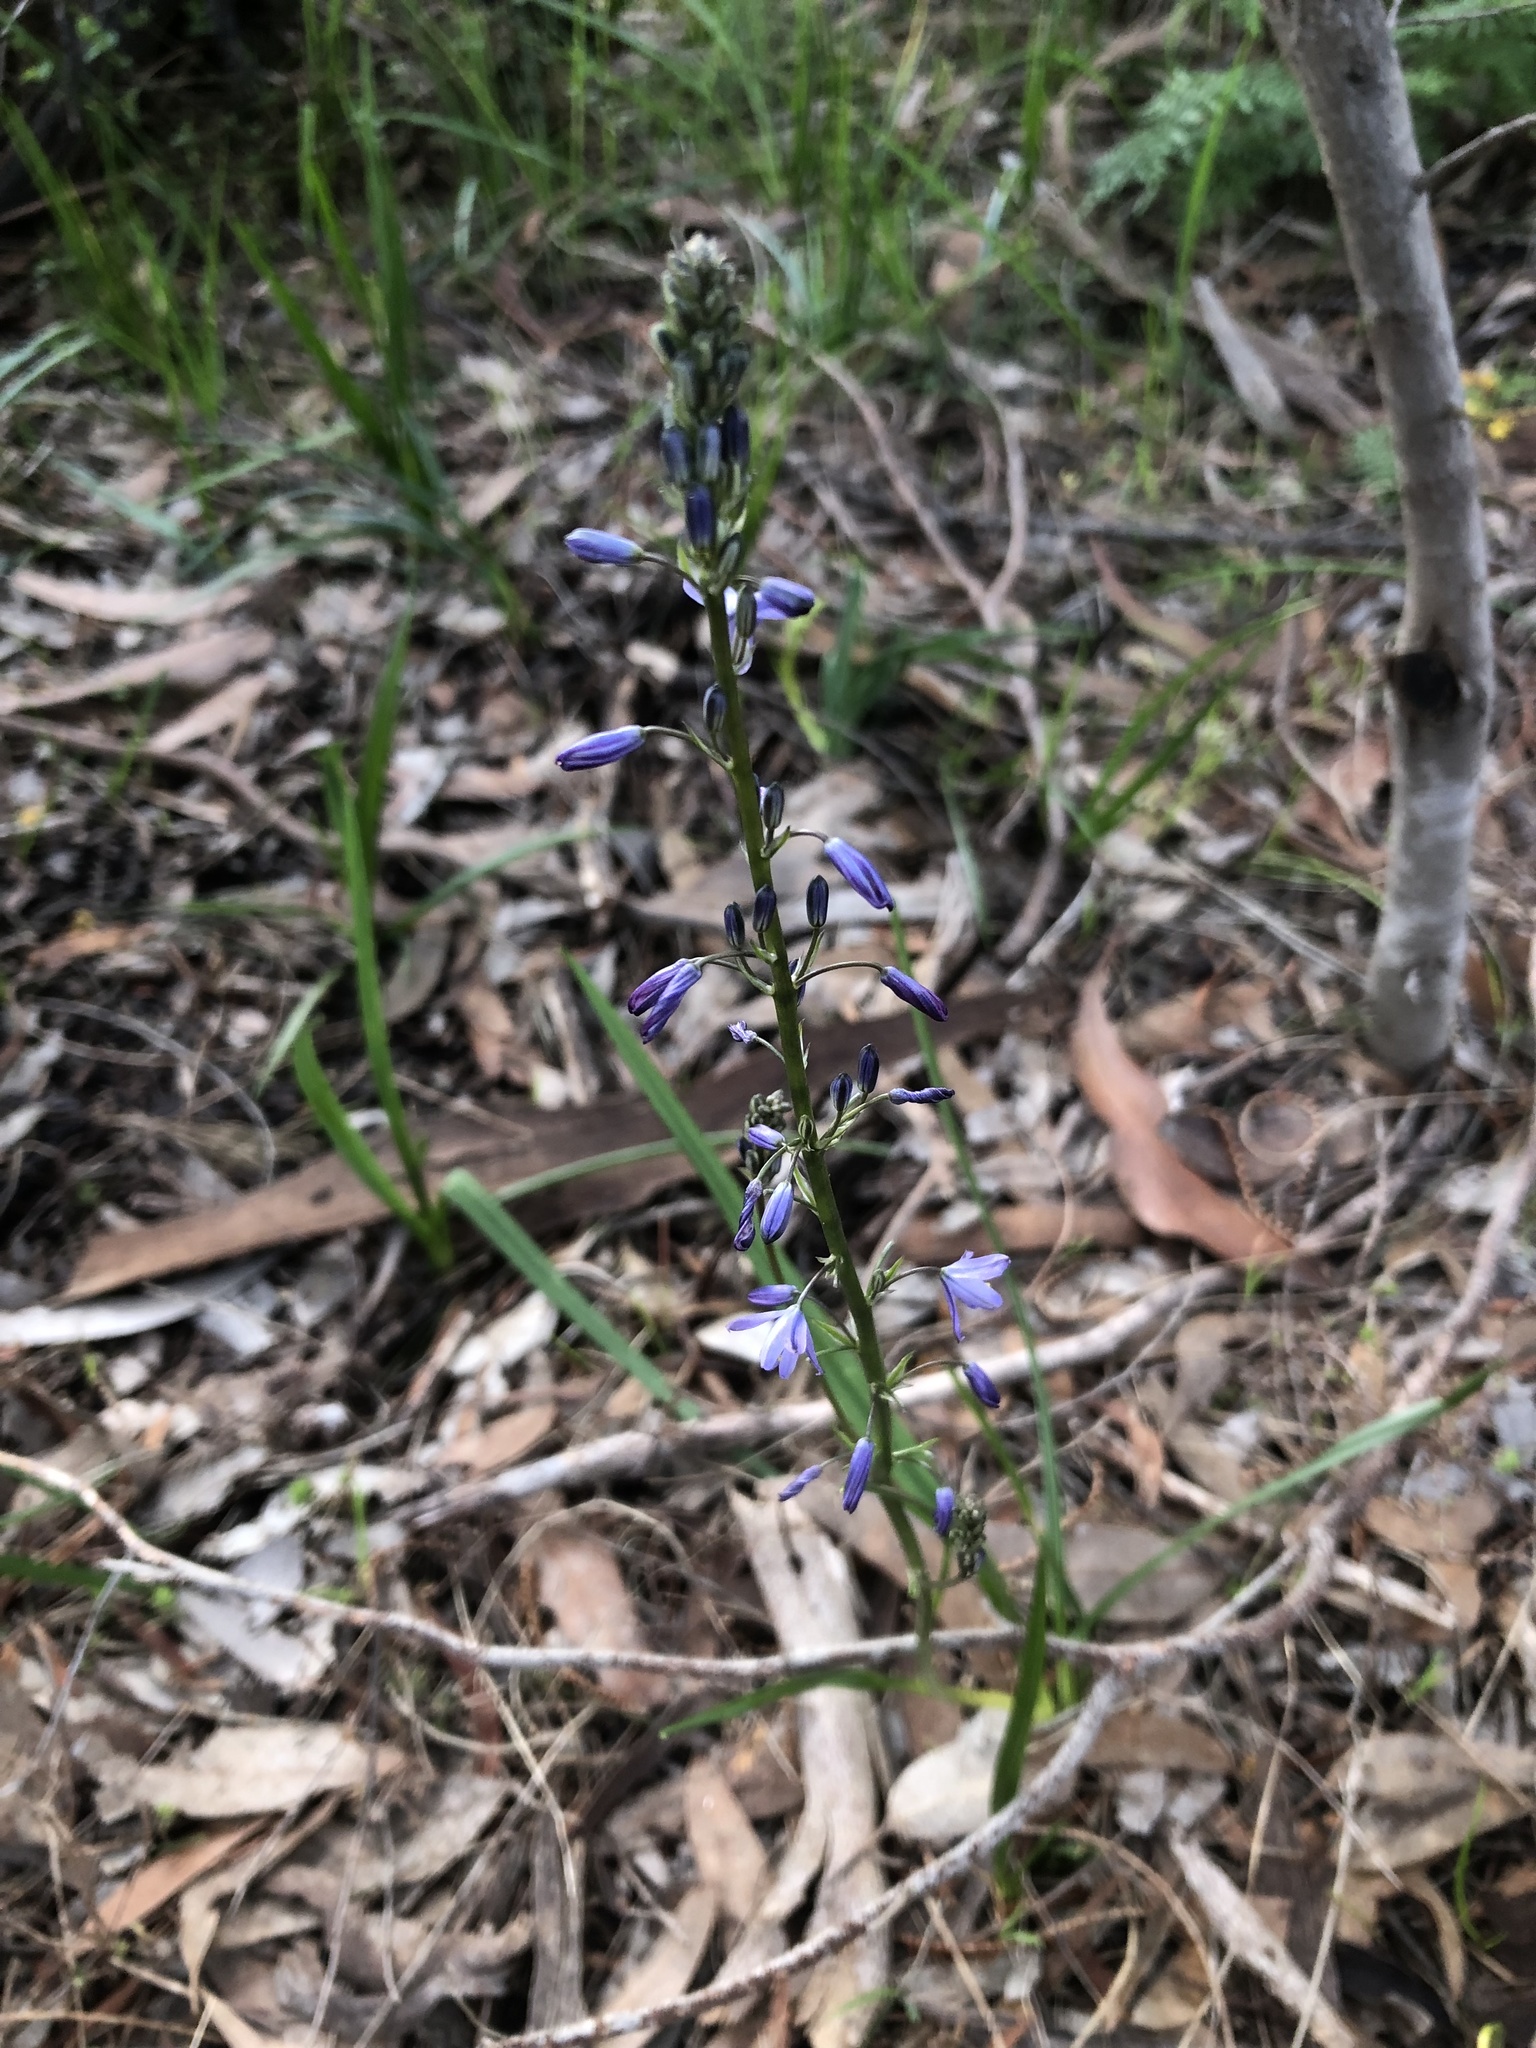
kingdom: Plantae
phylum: Tracheophyta
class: Liliopsida
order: Asparagales
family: Asphodelaceae
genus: Caesia
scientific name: Caesia calliantha
